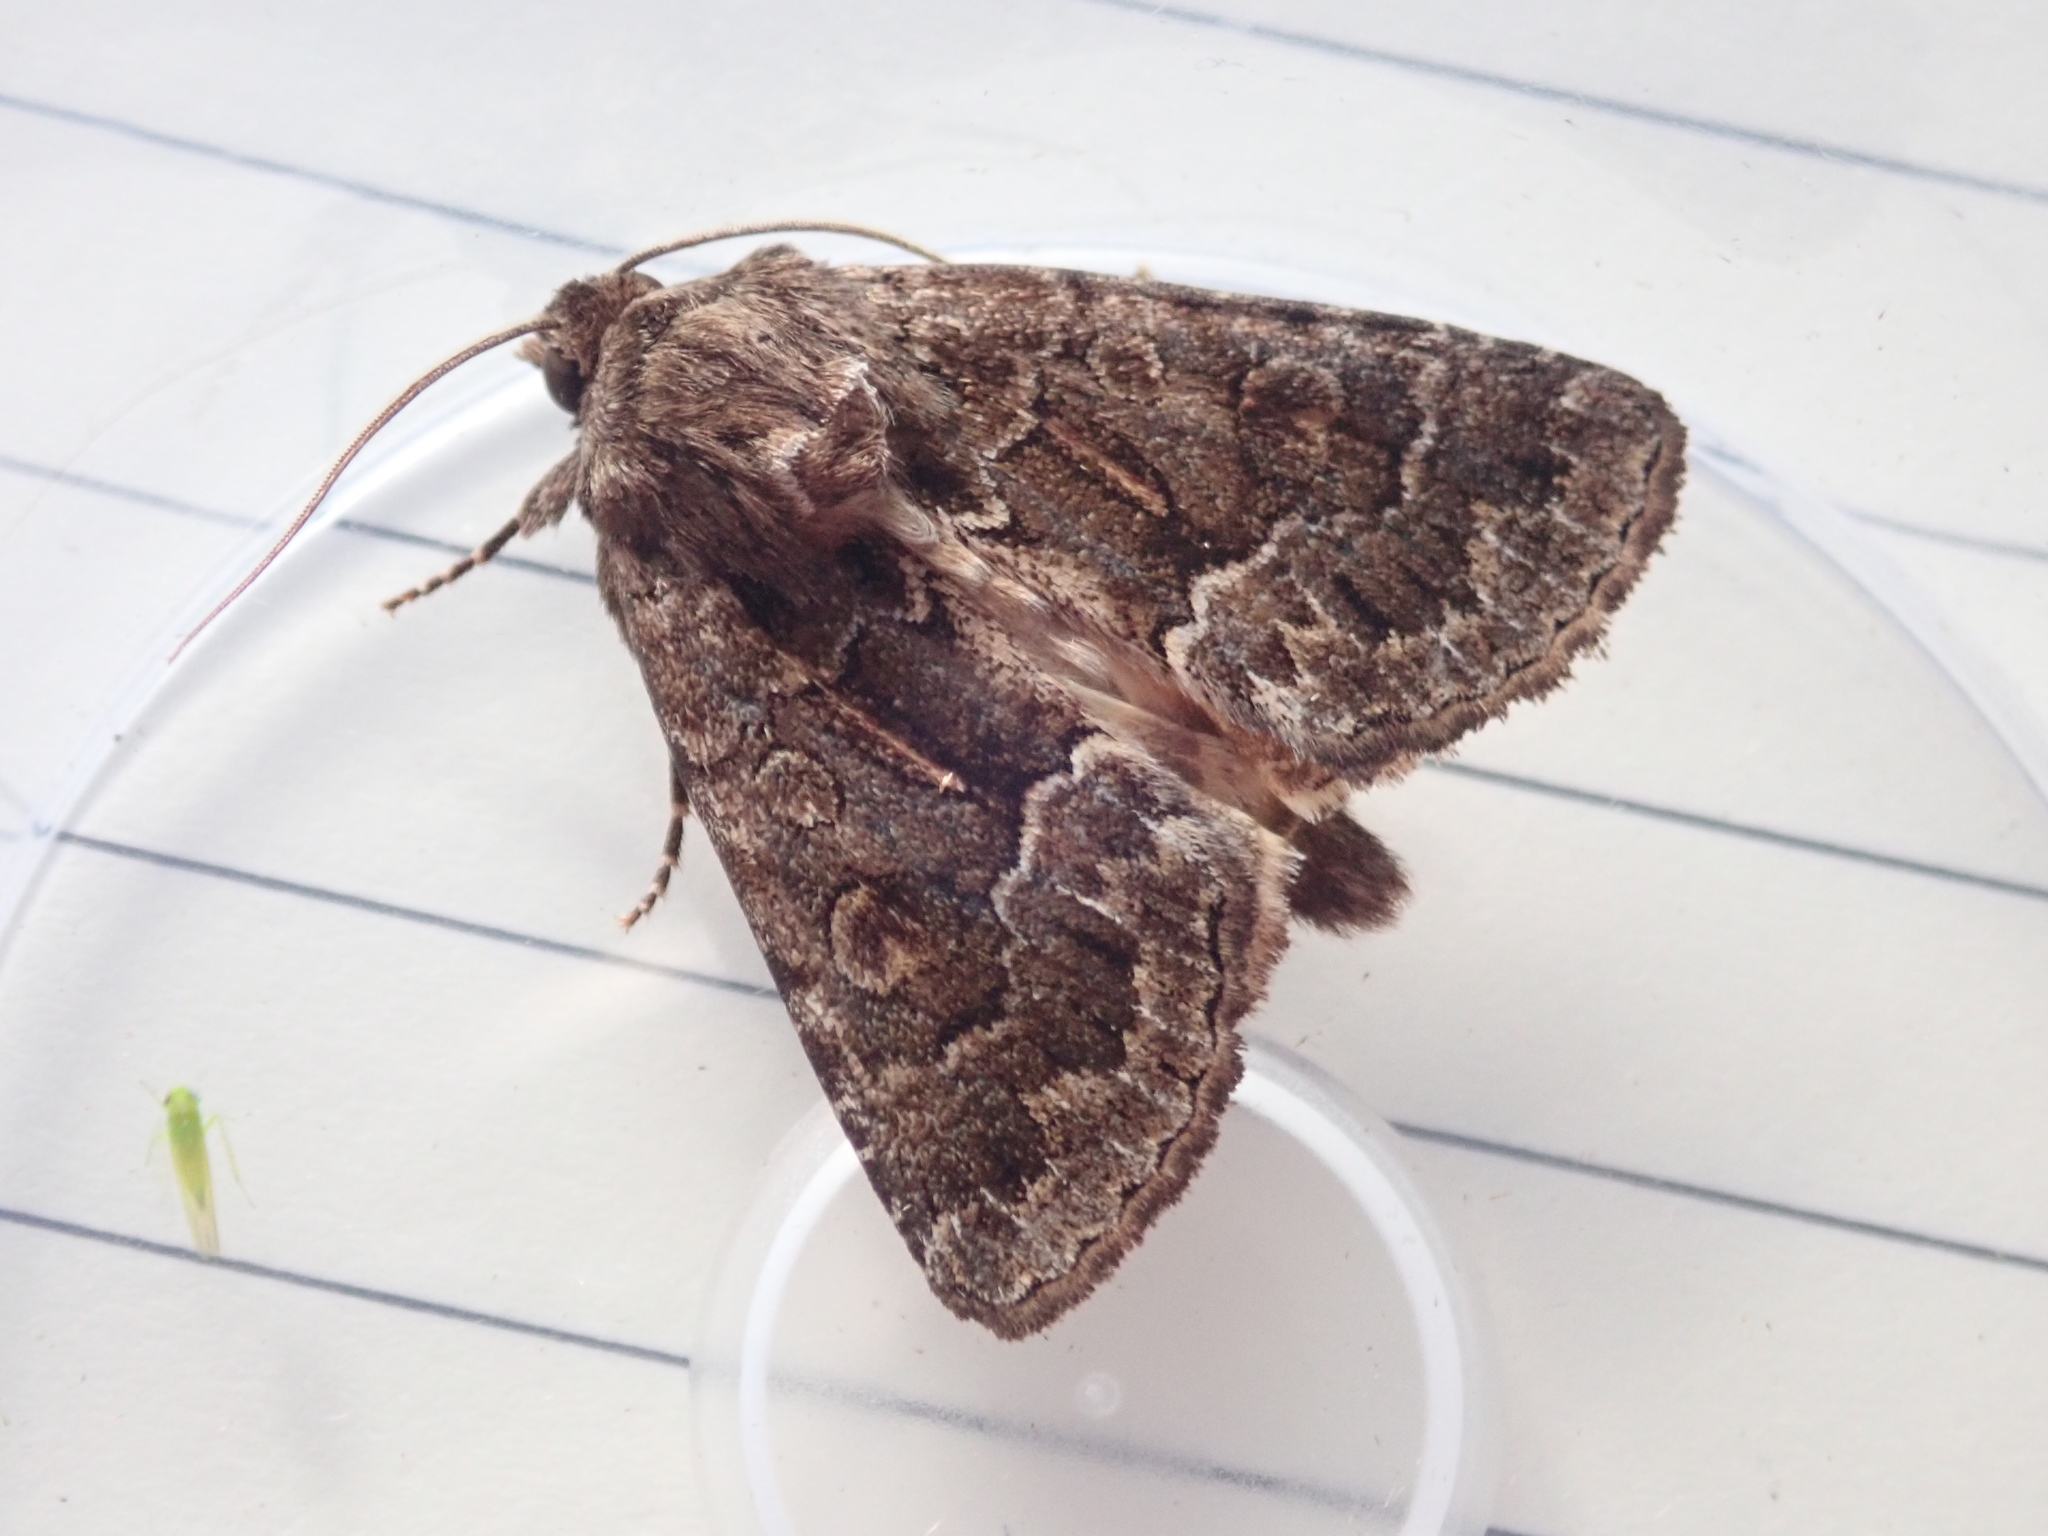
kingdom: Animalia
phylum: Arthropoda
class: Insecta
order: Lepidoptera
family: Noctuidae
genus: Thalpophila
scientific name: Thalpophila matura
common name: Straw underwing
